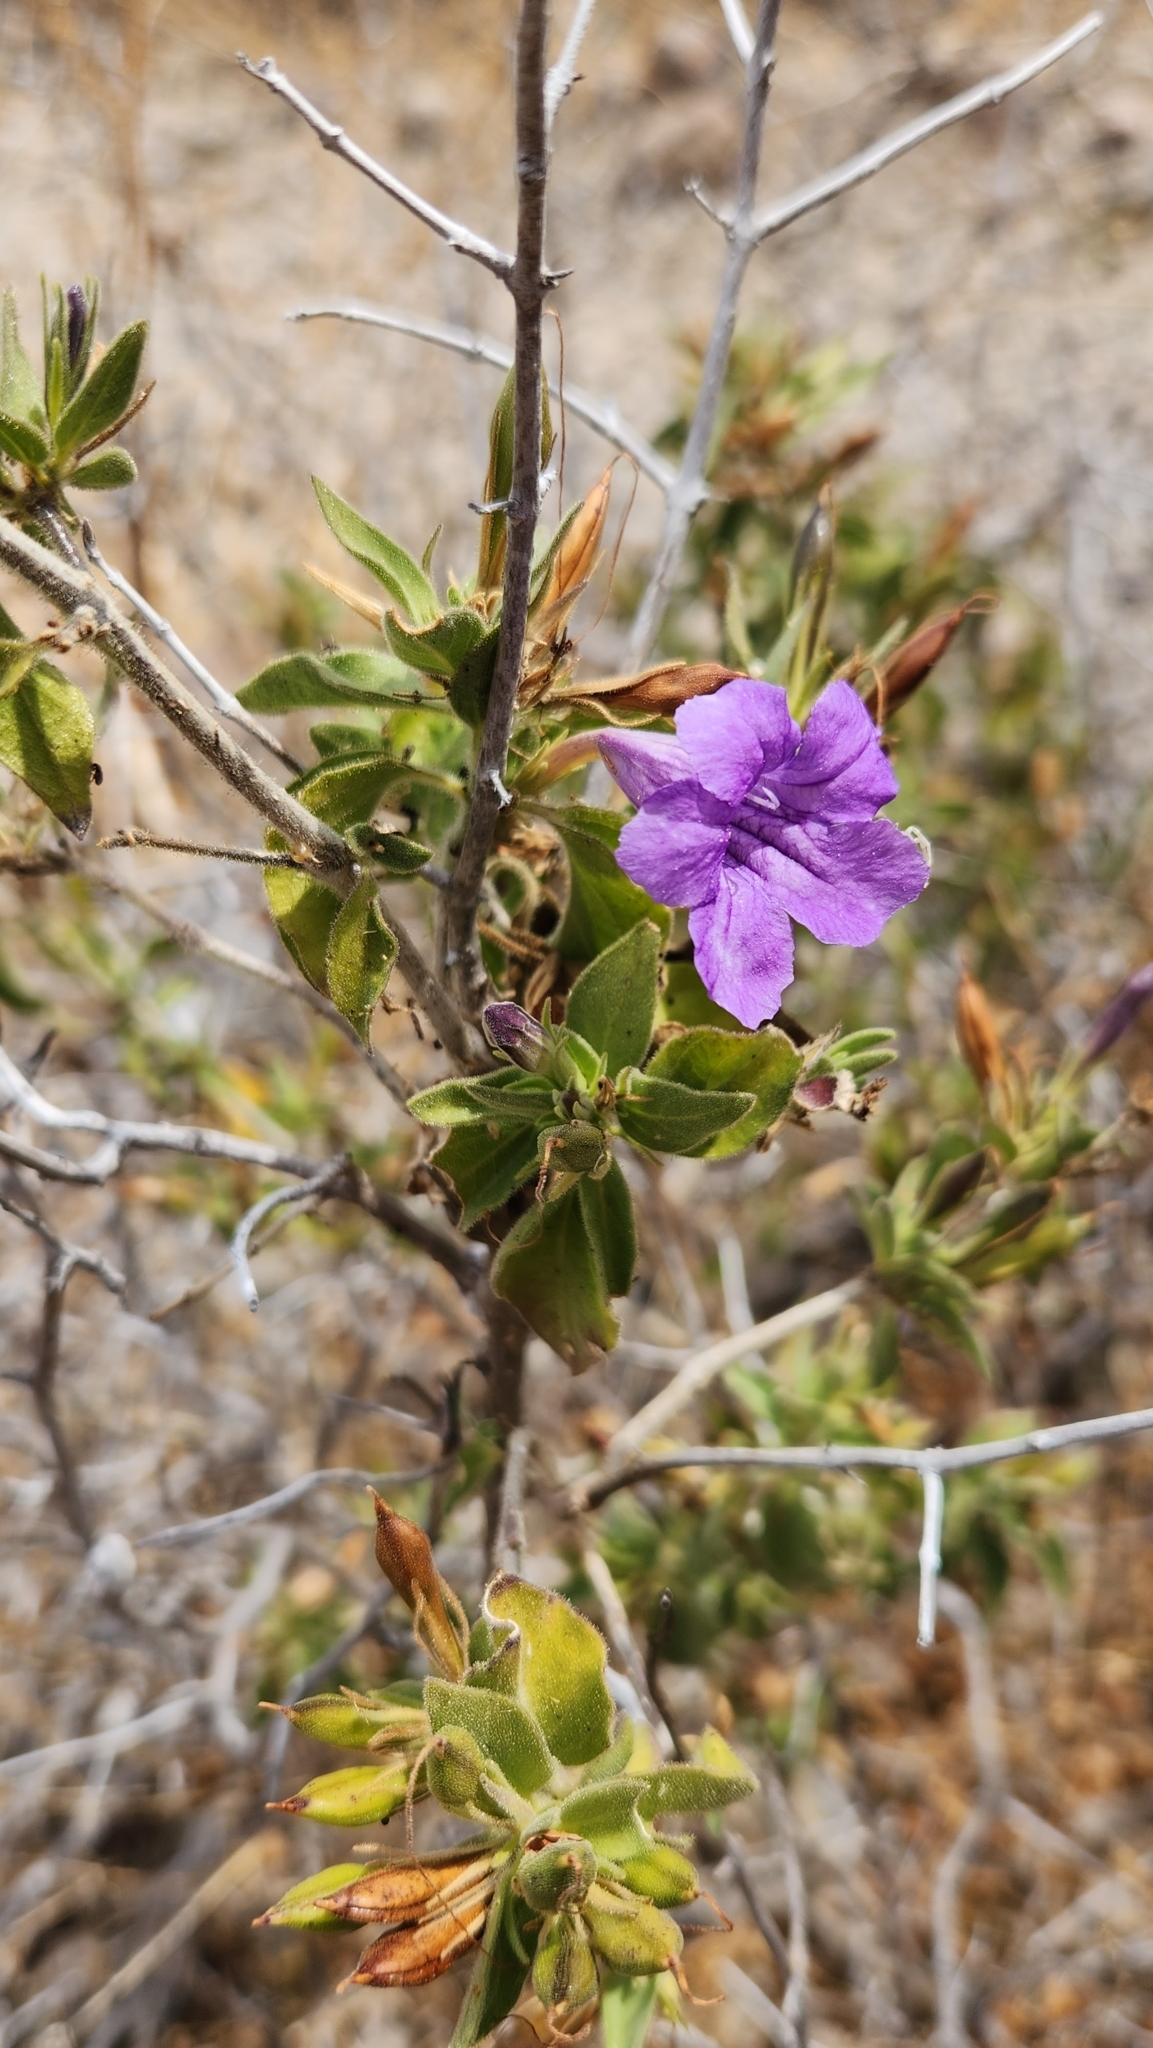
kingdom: Plantae
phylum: Tracheophyta
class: Magnoliopsida
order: Lamiales
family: Acanthaceae
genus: Ruellia
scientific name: Ruellia californica
